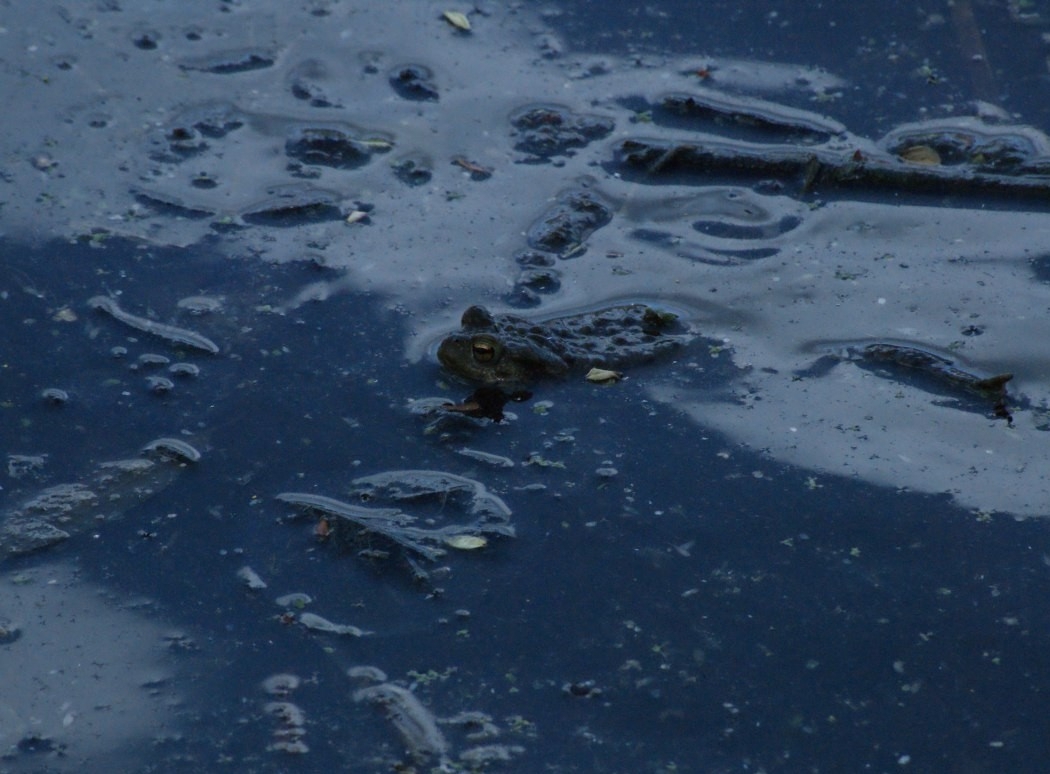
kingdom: Animalia
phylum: Chordata
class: Amphibia
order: Anura
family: Bufonidae
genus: Bufo
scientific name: Bufo bufo
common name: Common toad
